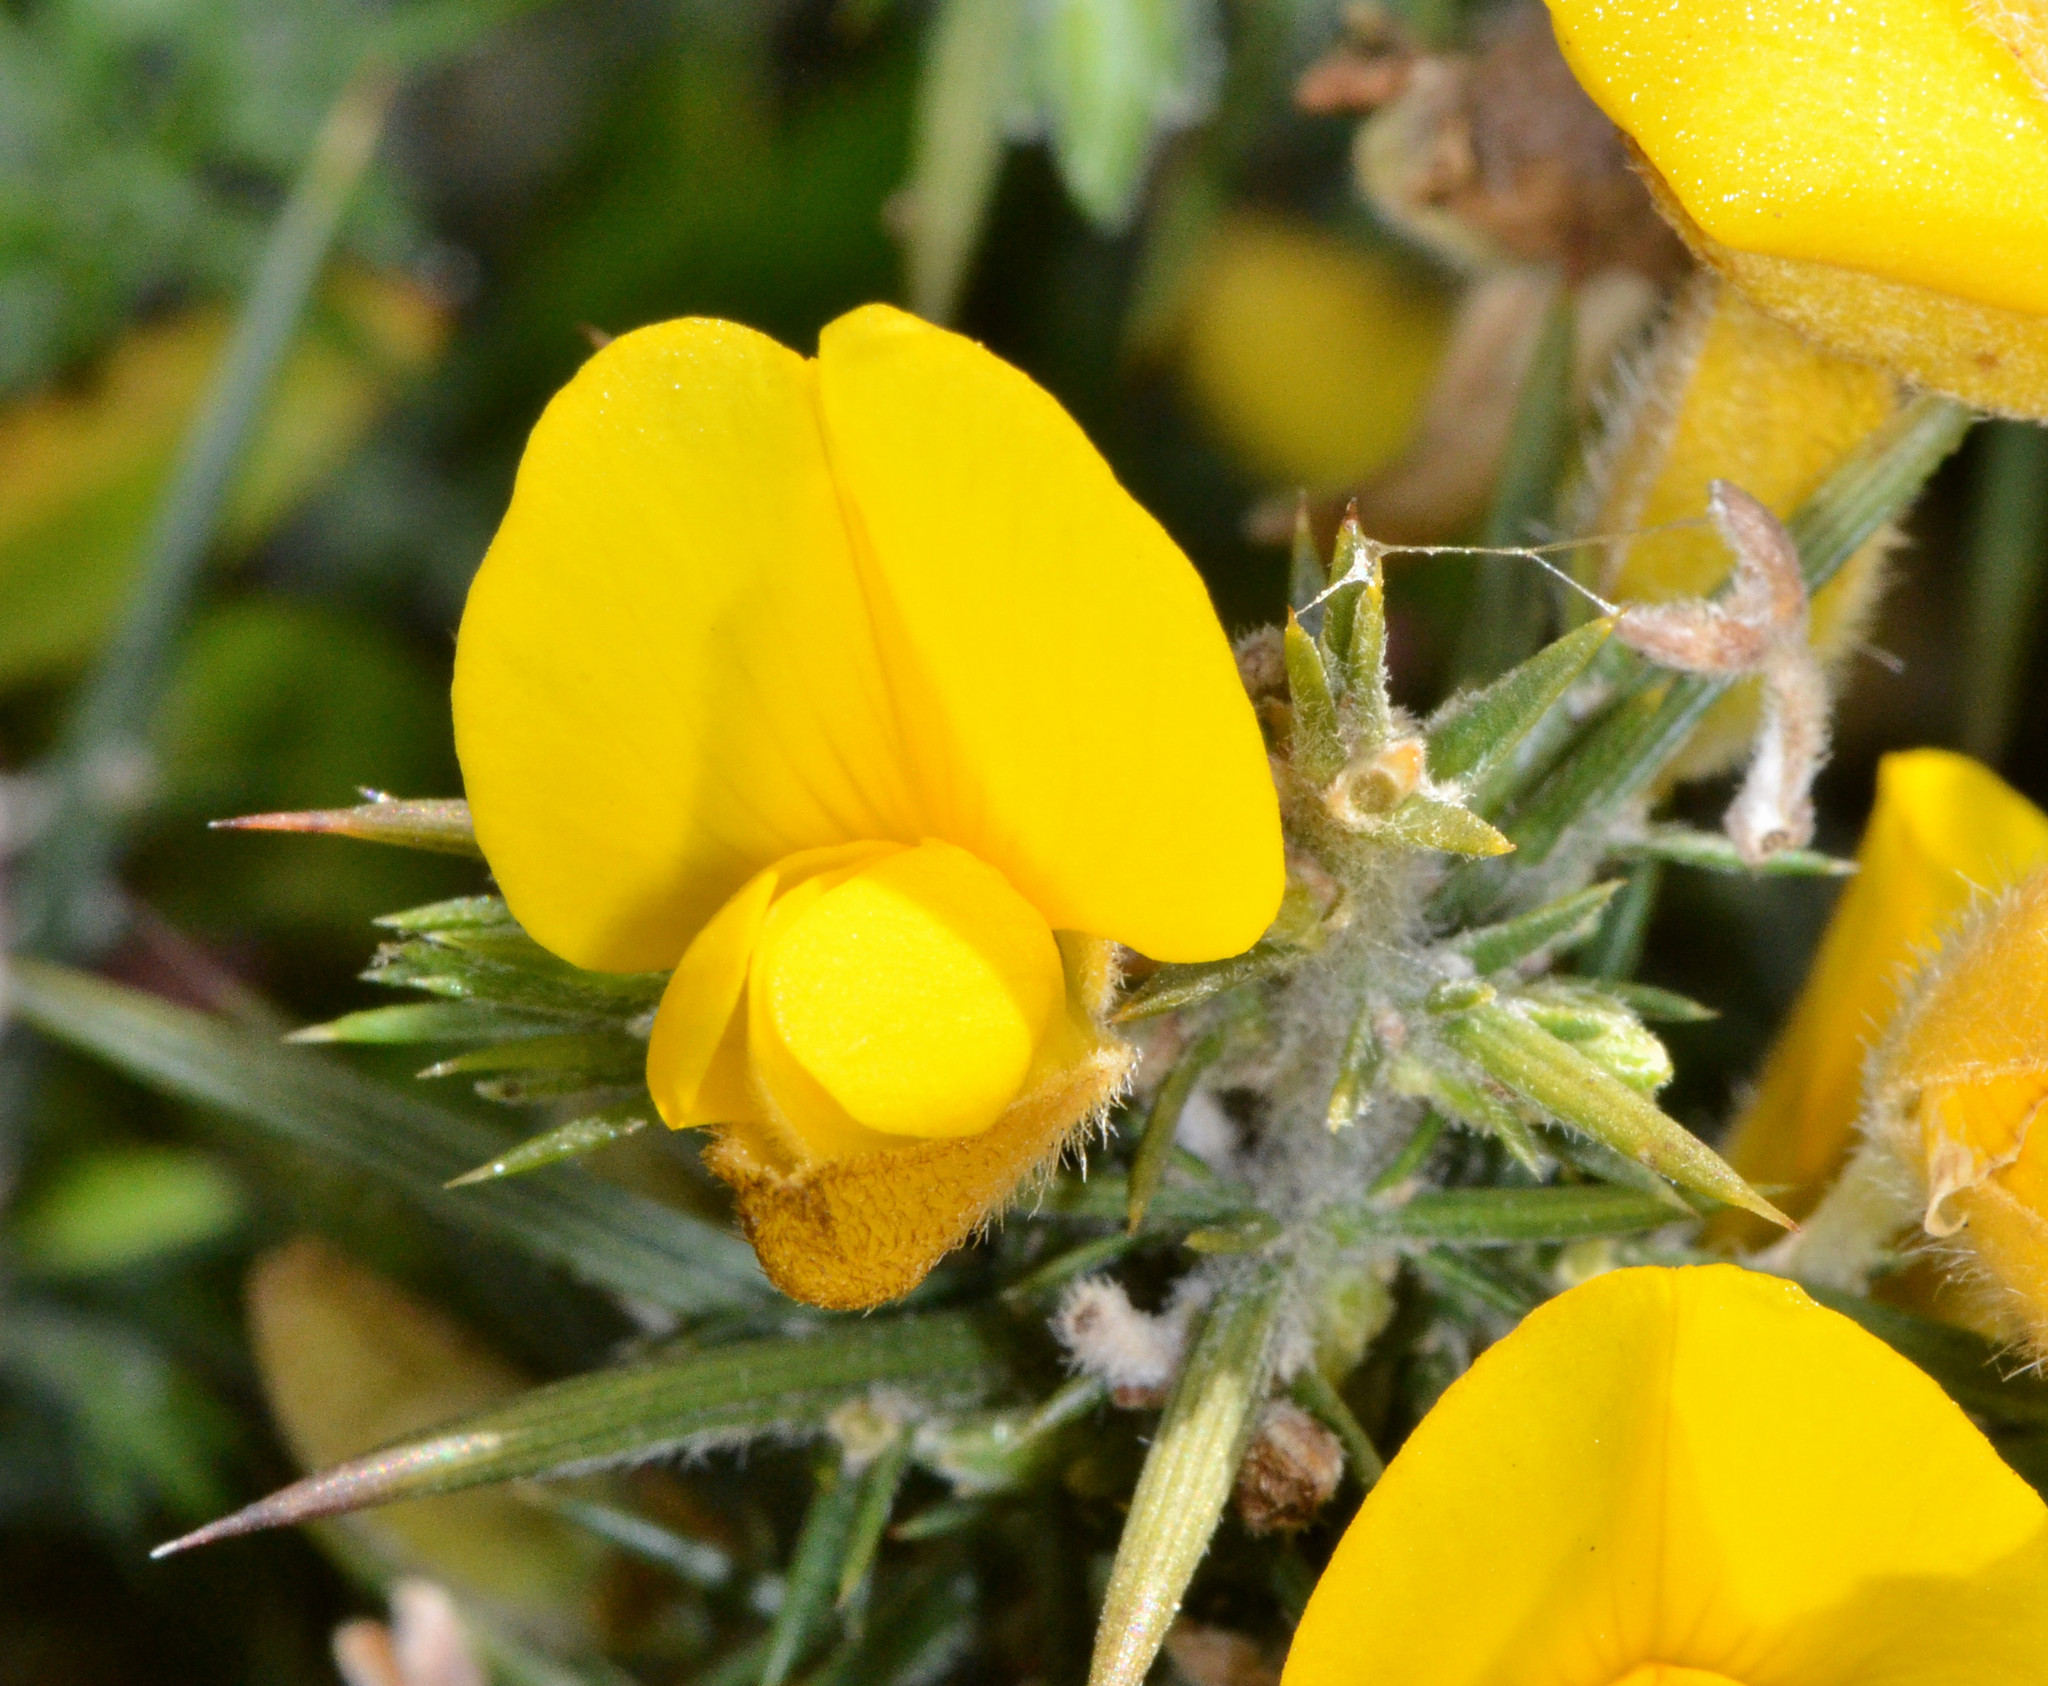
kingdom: Plantae
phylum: Tracheophyta
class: Magnoliopsida
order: Fabales
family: Fabaceae
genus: Ulex
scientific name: Ulex europaeus
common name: Common gorse
